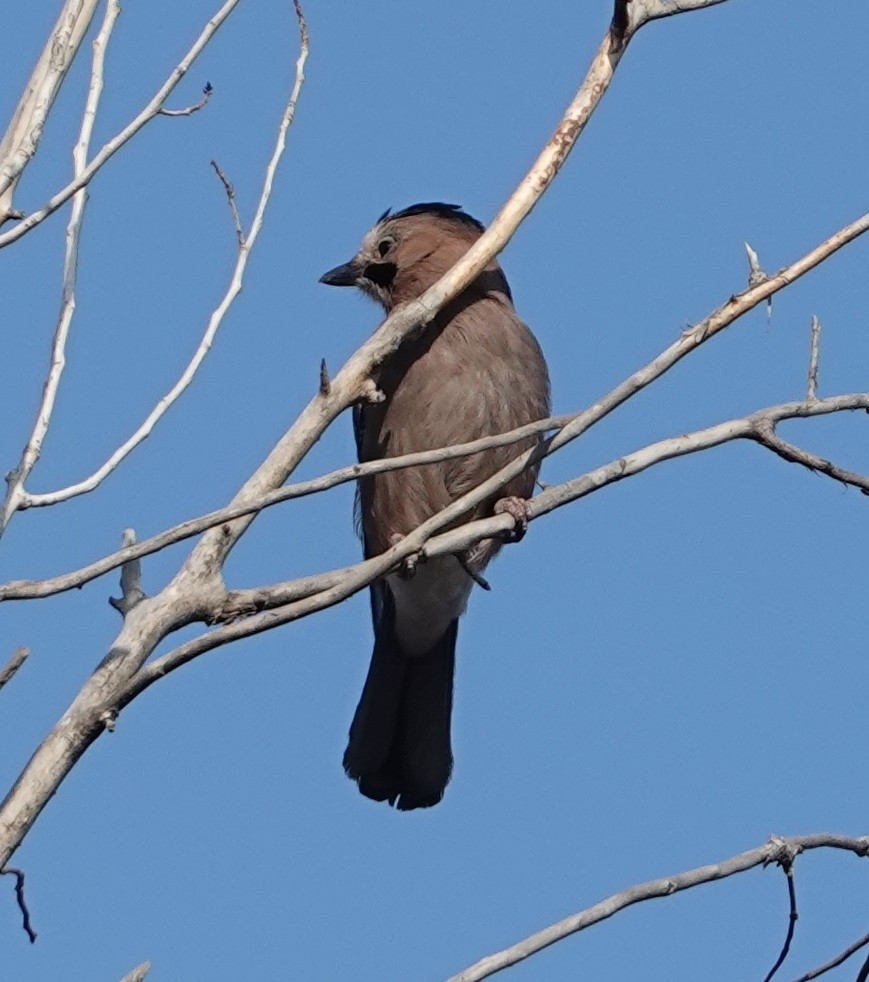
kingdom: Animalia
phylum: Chordata
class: Aves
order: Passeriformes
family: Corvidae
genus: Garrulus
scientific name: Garrulus glandarius
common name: Eurasian jay
